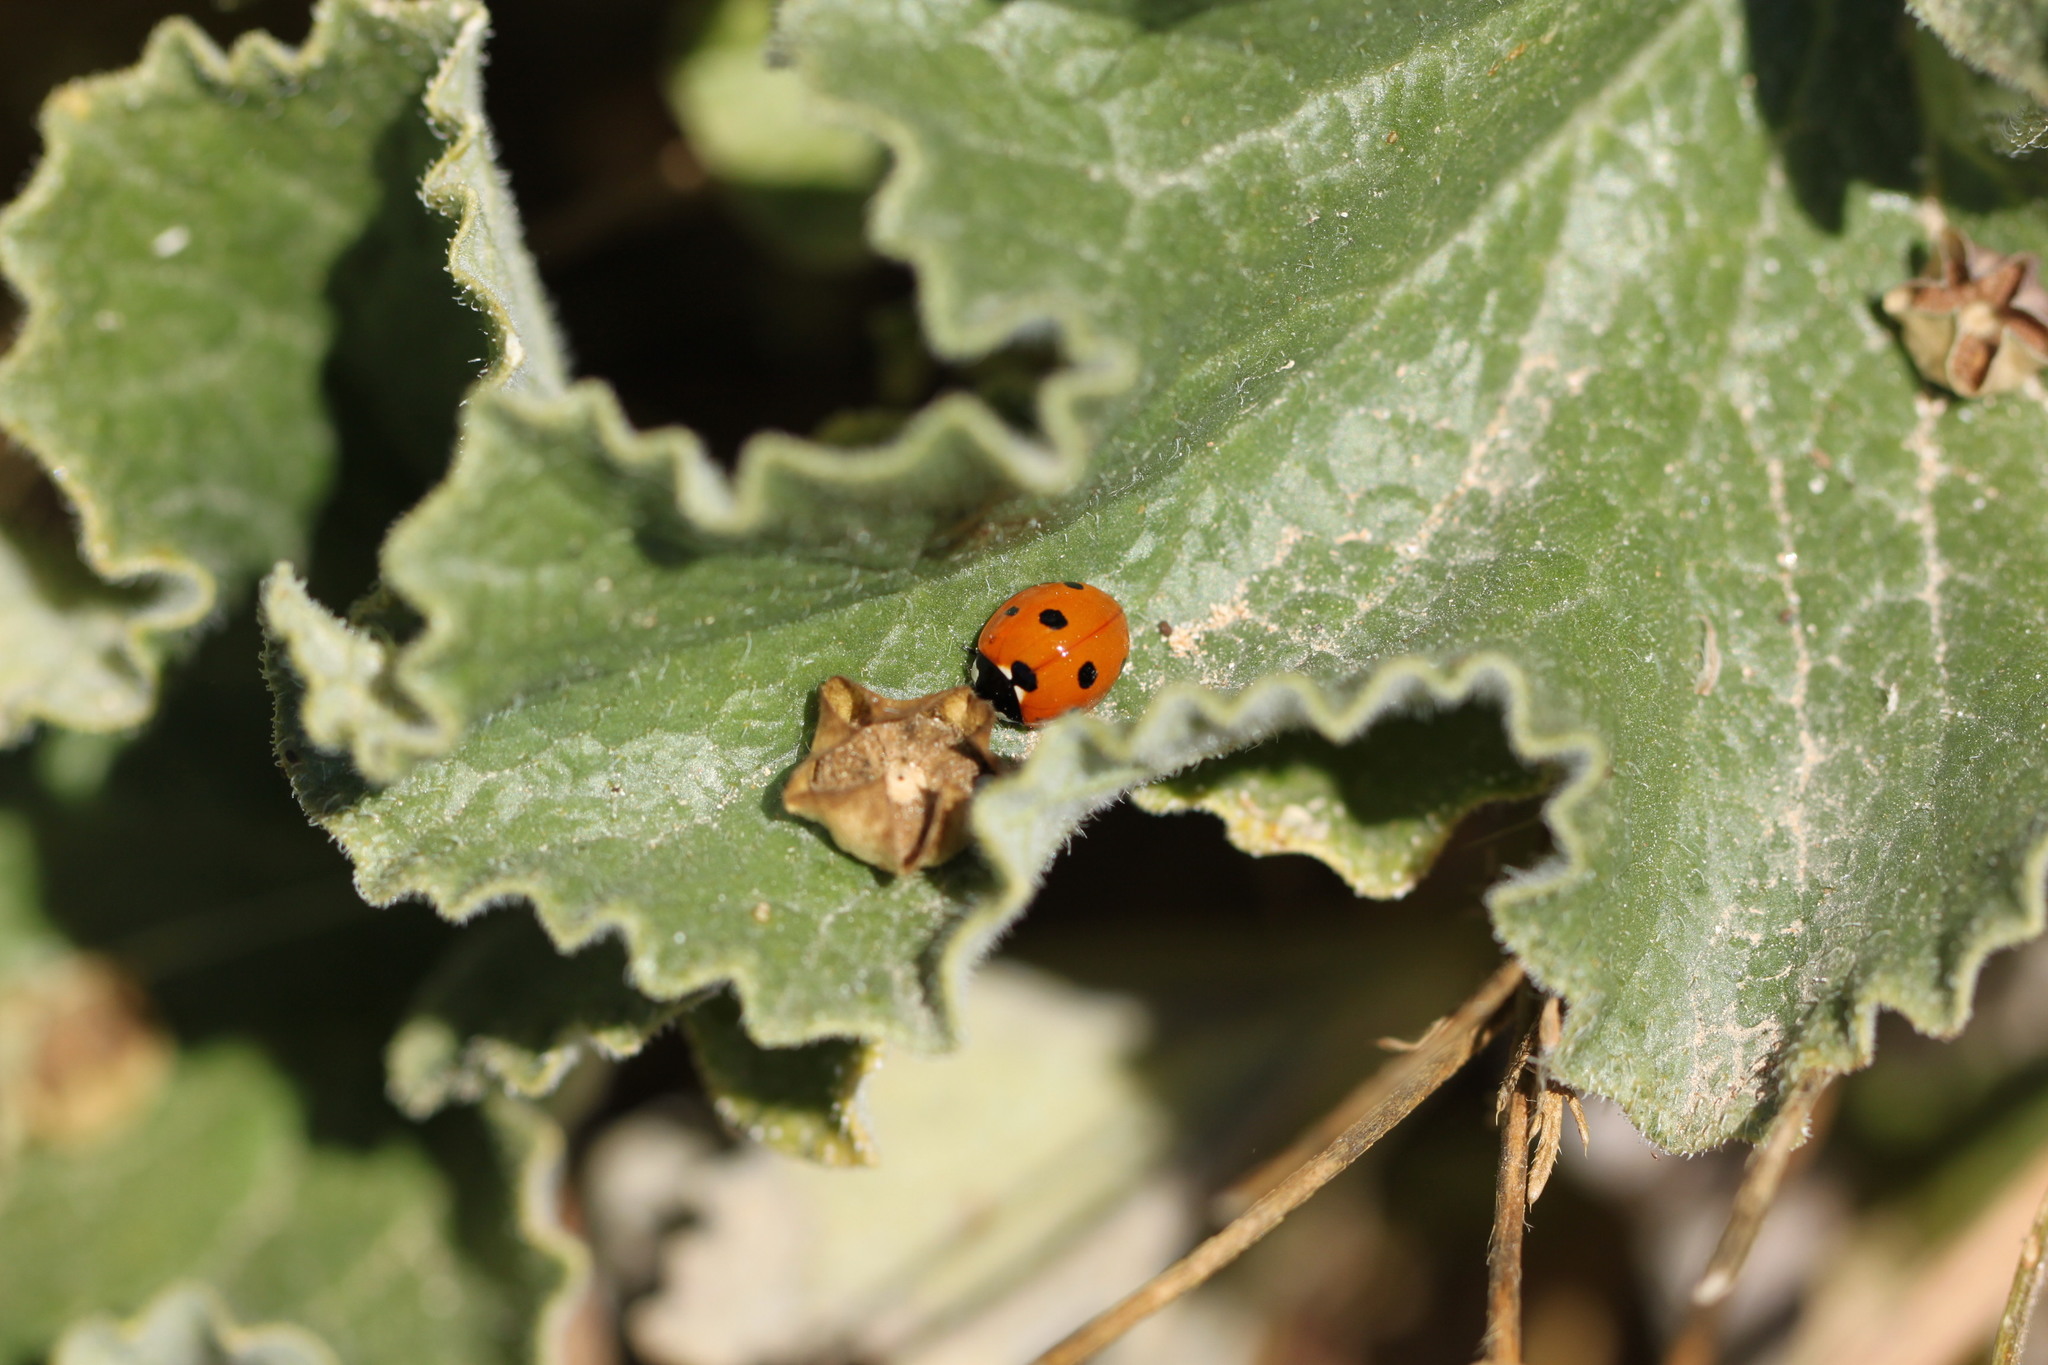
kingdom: Animalia
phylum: Arthropoda
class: Insecta
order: Coleoptera
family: Coccinellidae
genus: Coccinella
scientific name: Coccinella septempunctata
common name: Sevenspotted lady beetle
